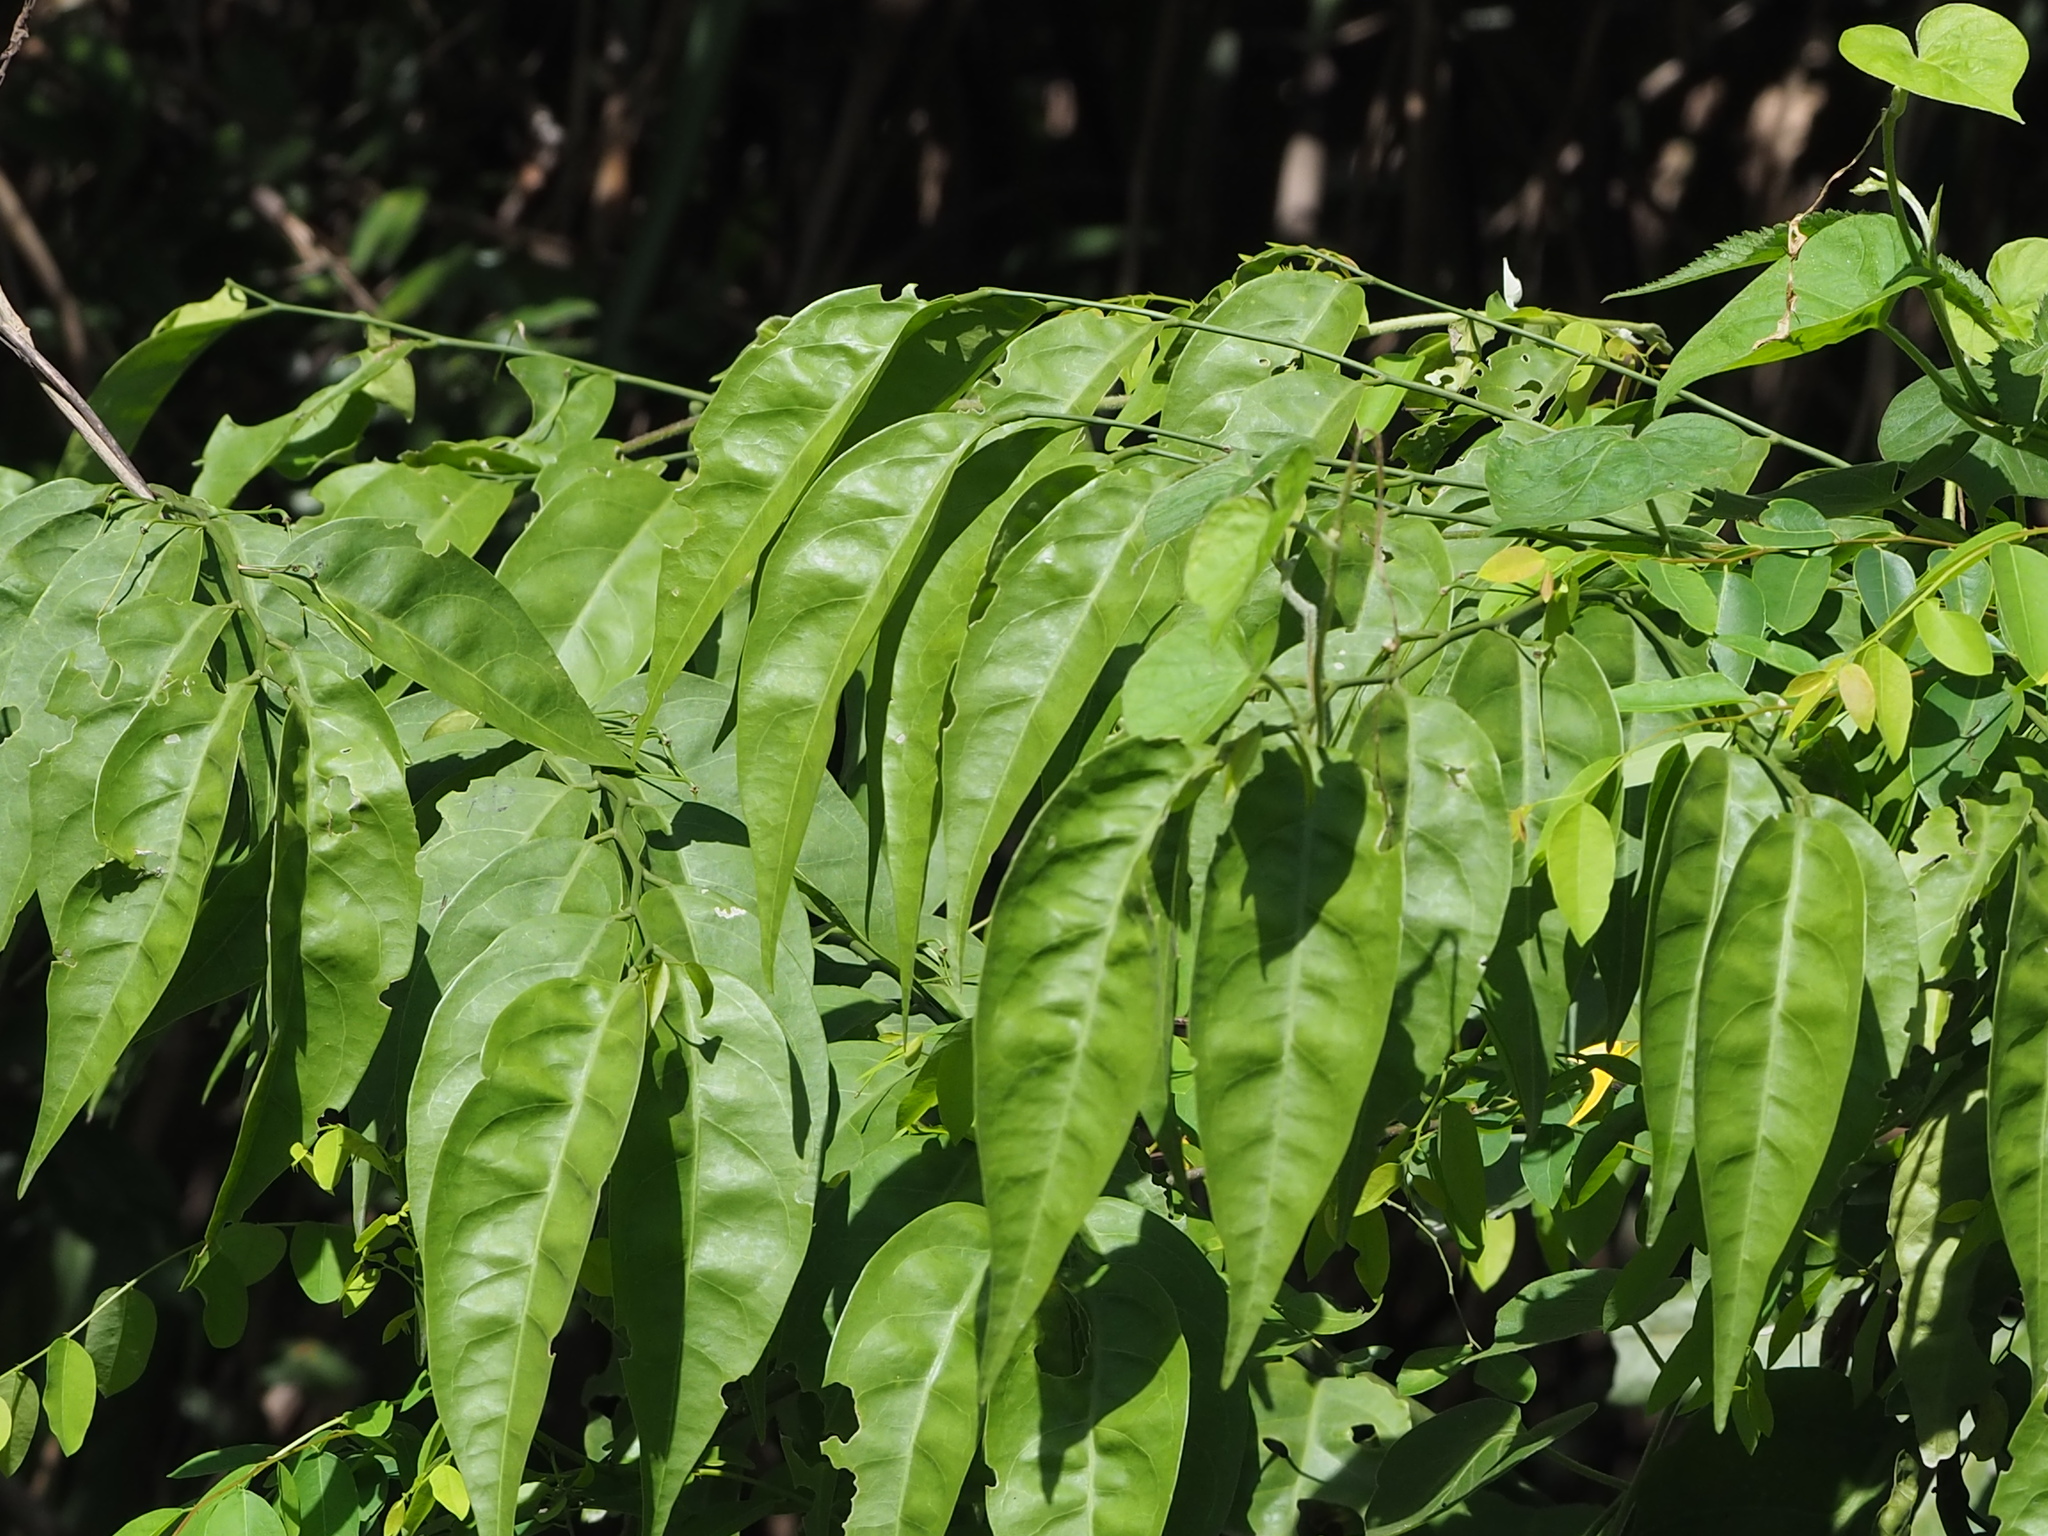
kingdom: Plantae
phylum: Tracheophyta
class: Magnoliopsida
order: Brassicales
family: Capparaceae
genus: Capparis
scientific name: Capparis sabiifolia
